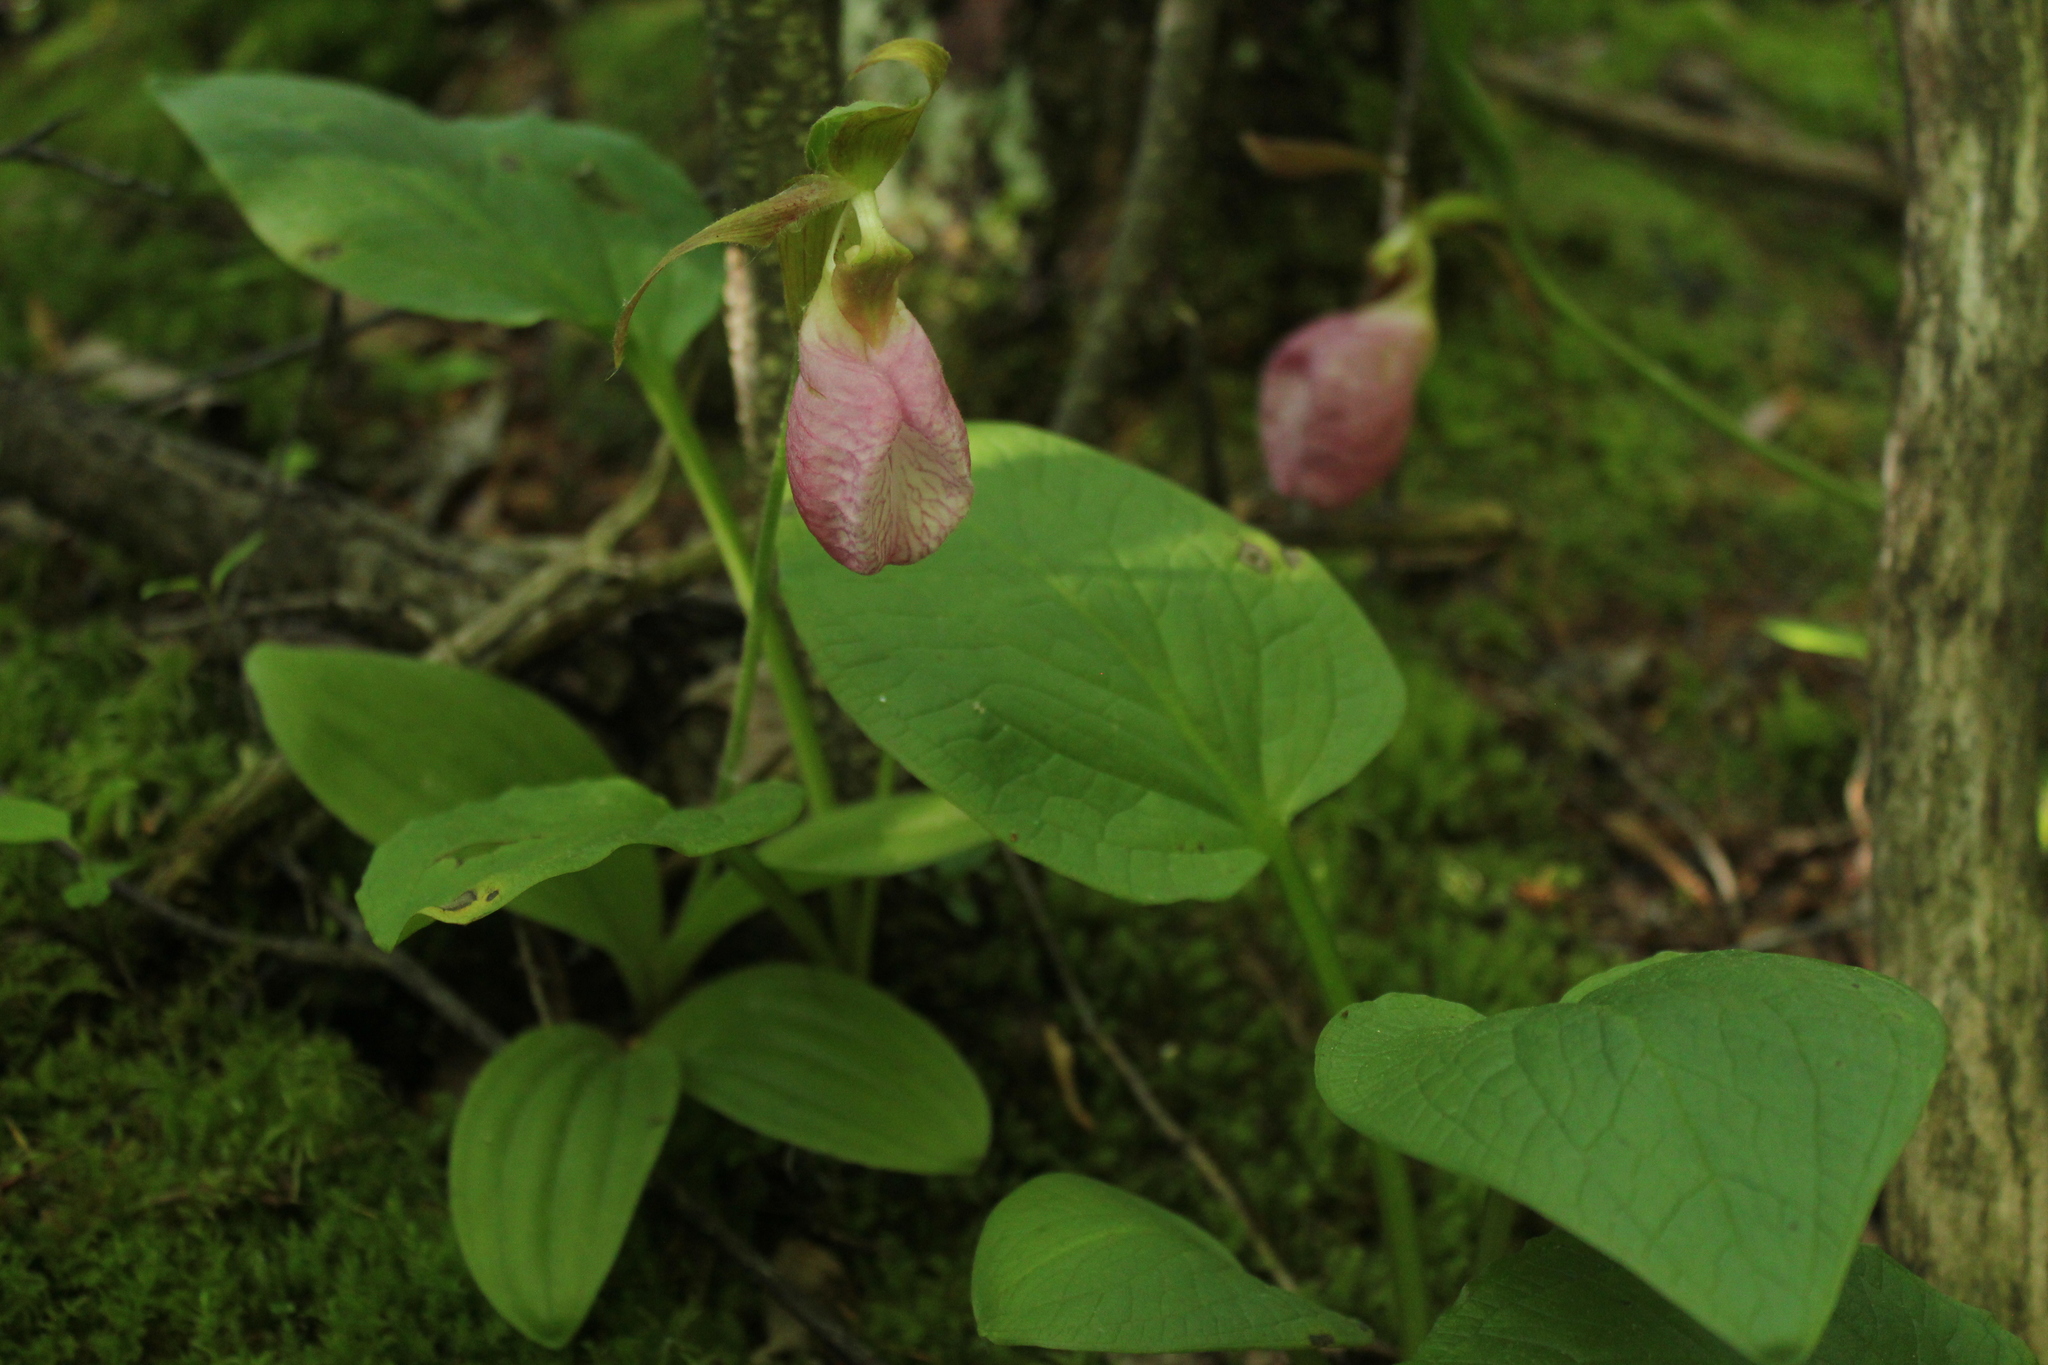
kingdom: Plantae
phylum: Tracheophyta
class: Liliopsida
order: Asparagales
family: Orchidaceae
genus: Cypripedium
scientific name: Cypripedium acaule
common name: Pink lady's-slipper
